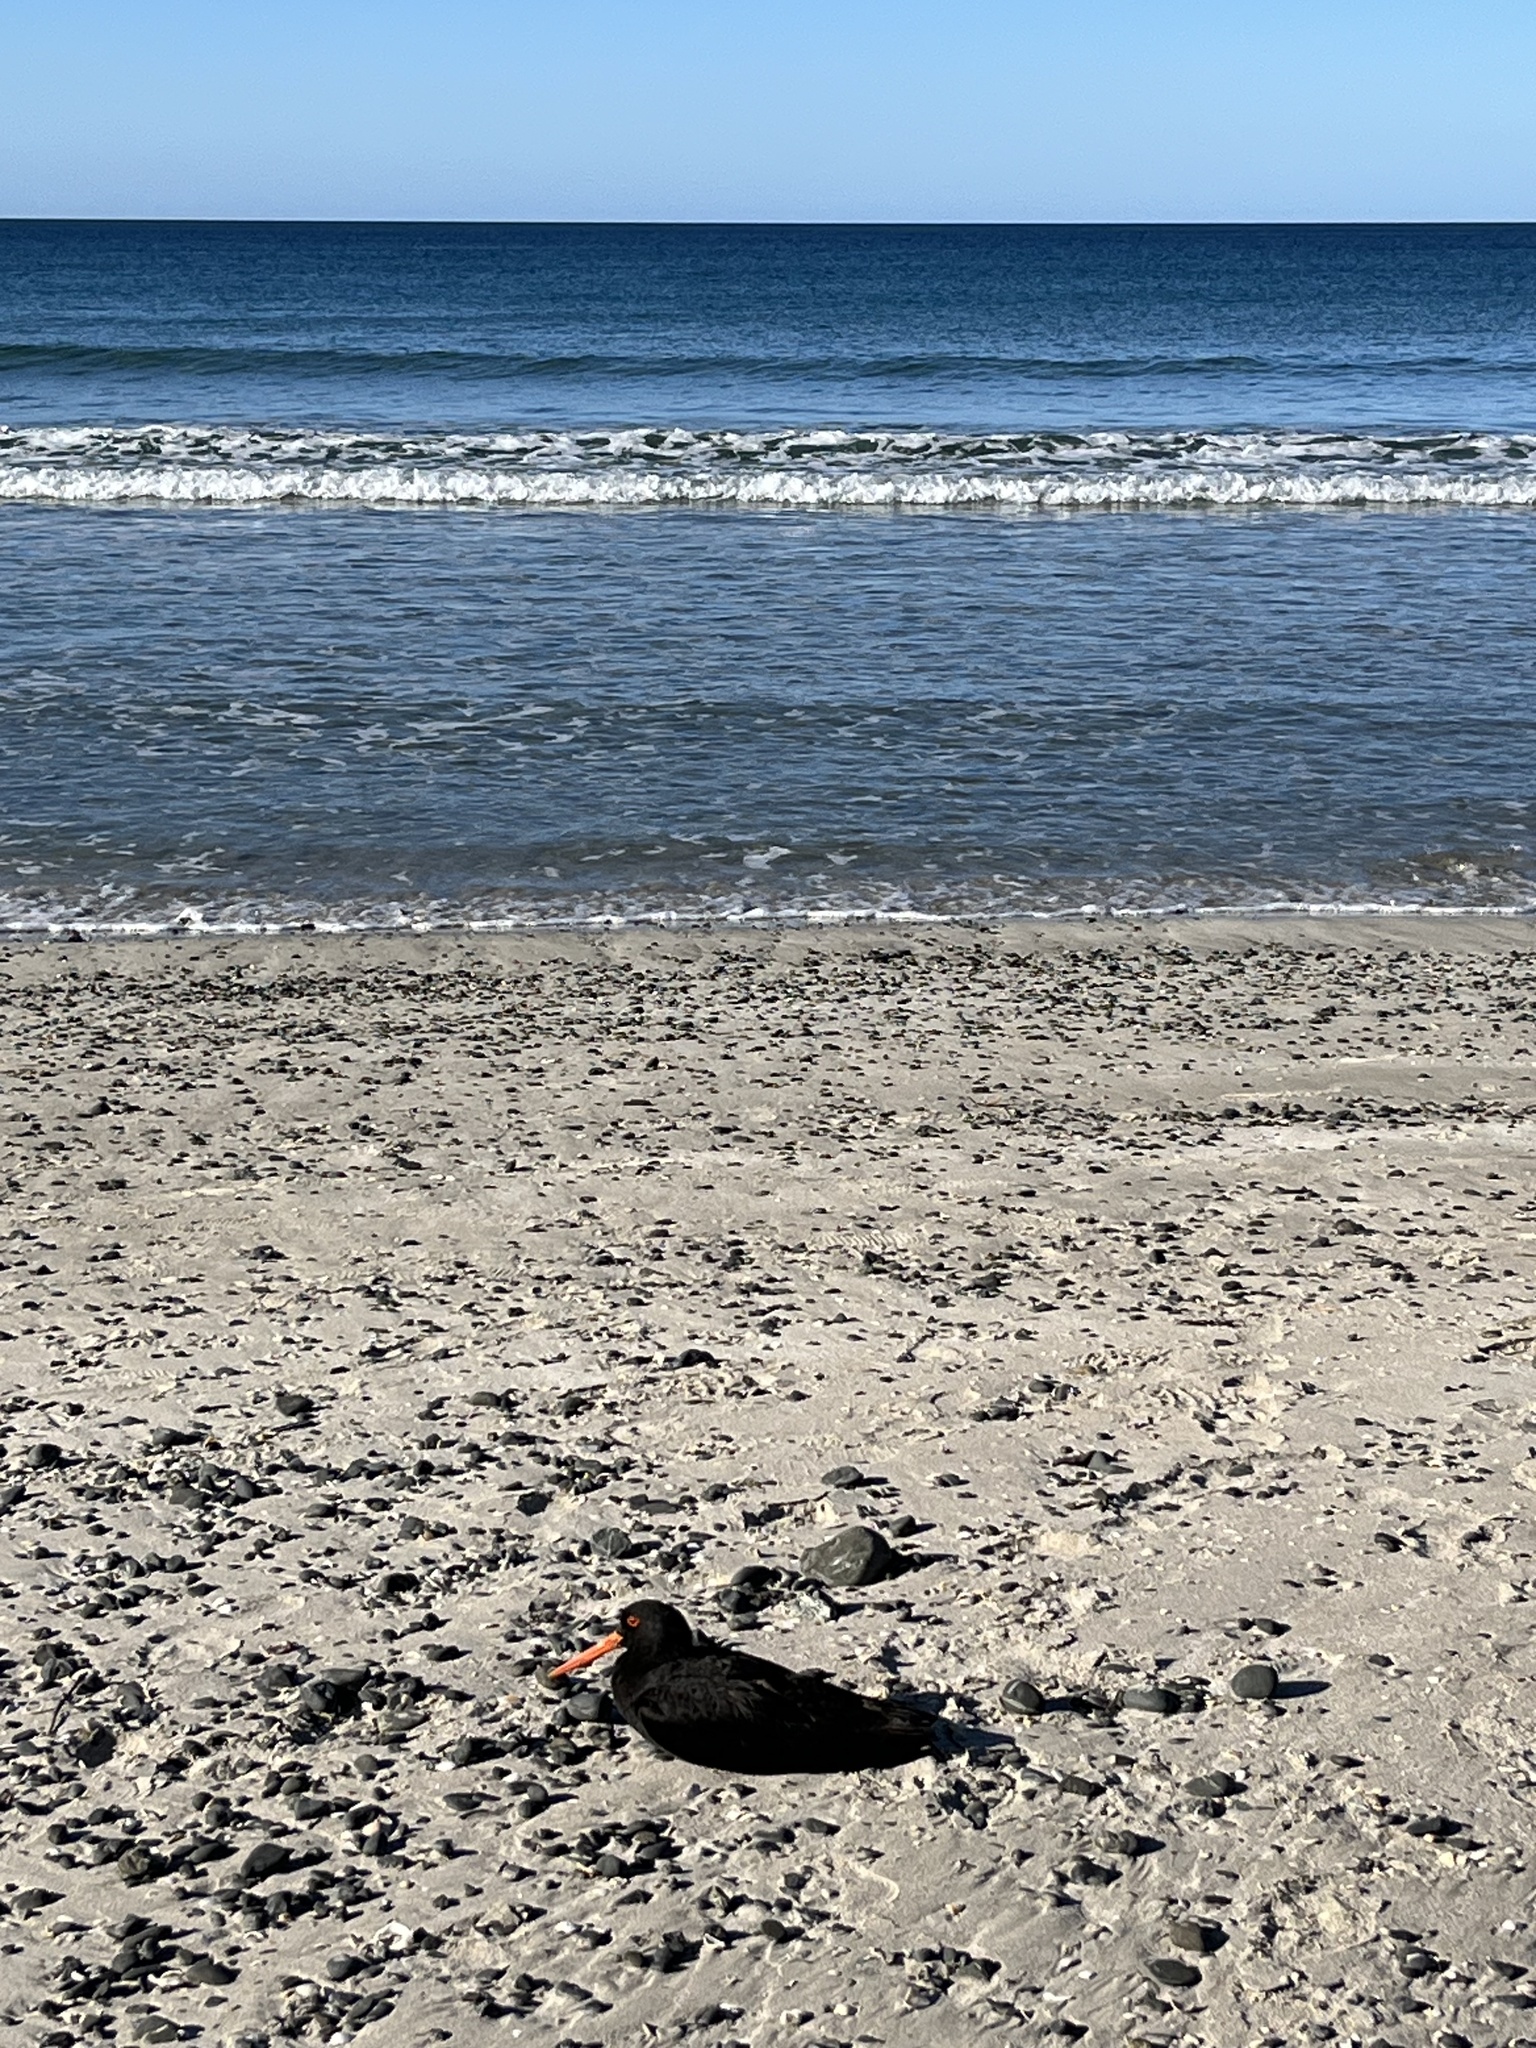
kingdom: Animalia
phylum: Chordata
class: Aves
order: Charadriiformes
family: Haematopodidae
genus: Haematopus
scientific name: Haematopus unicolor
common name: Variable oystercatcher
